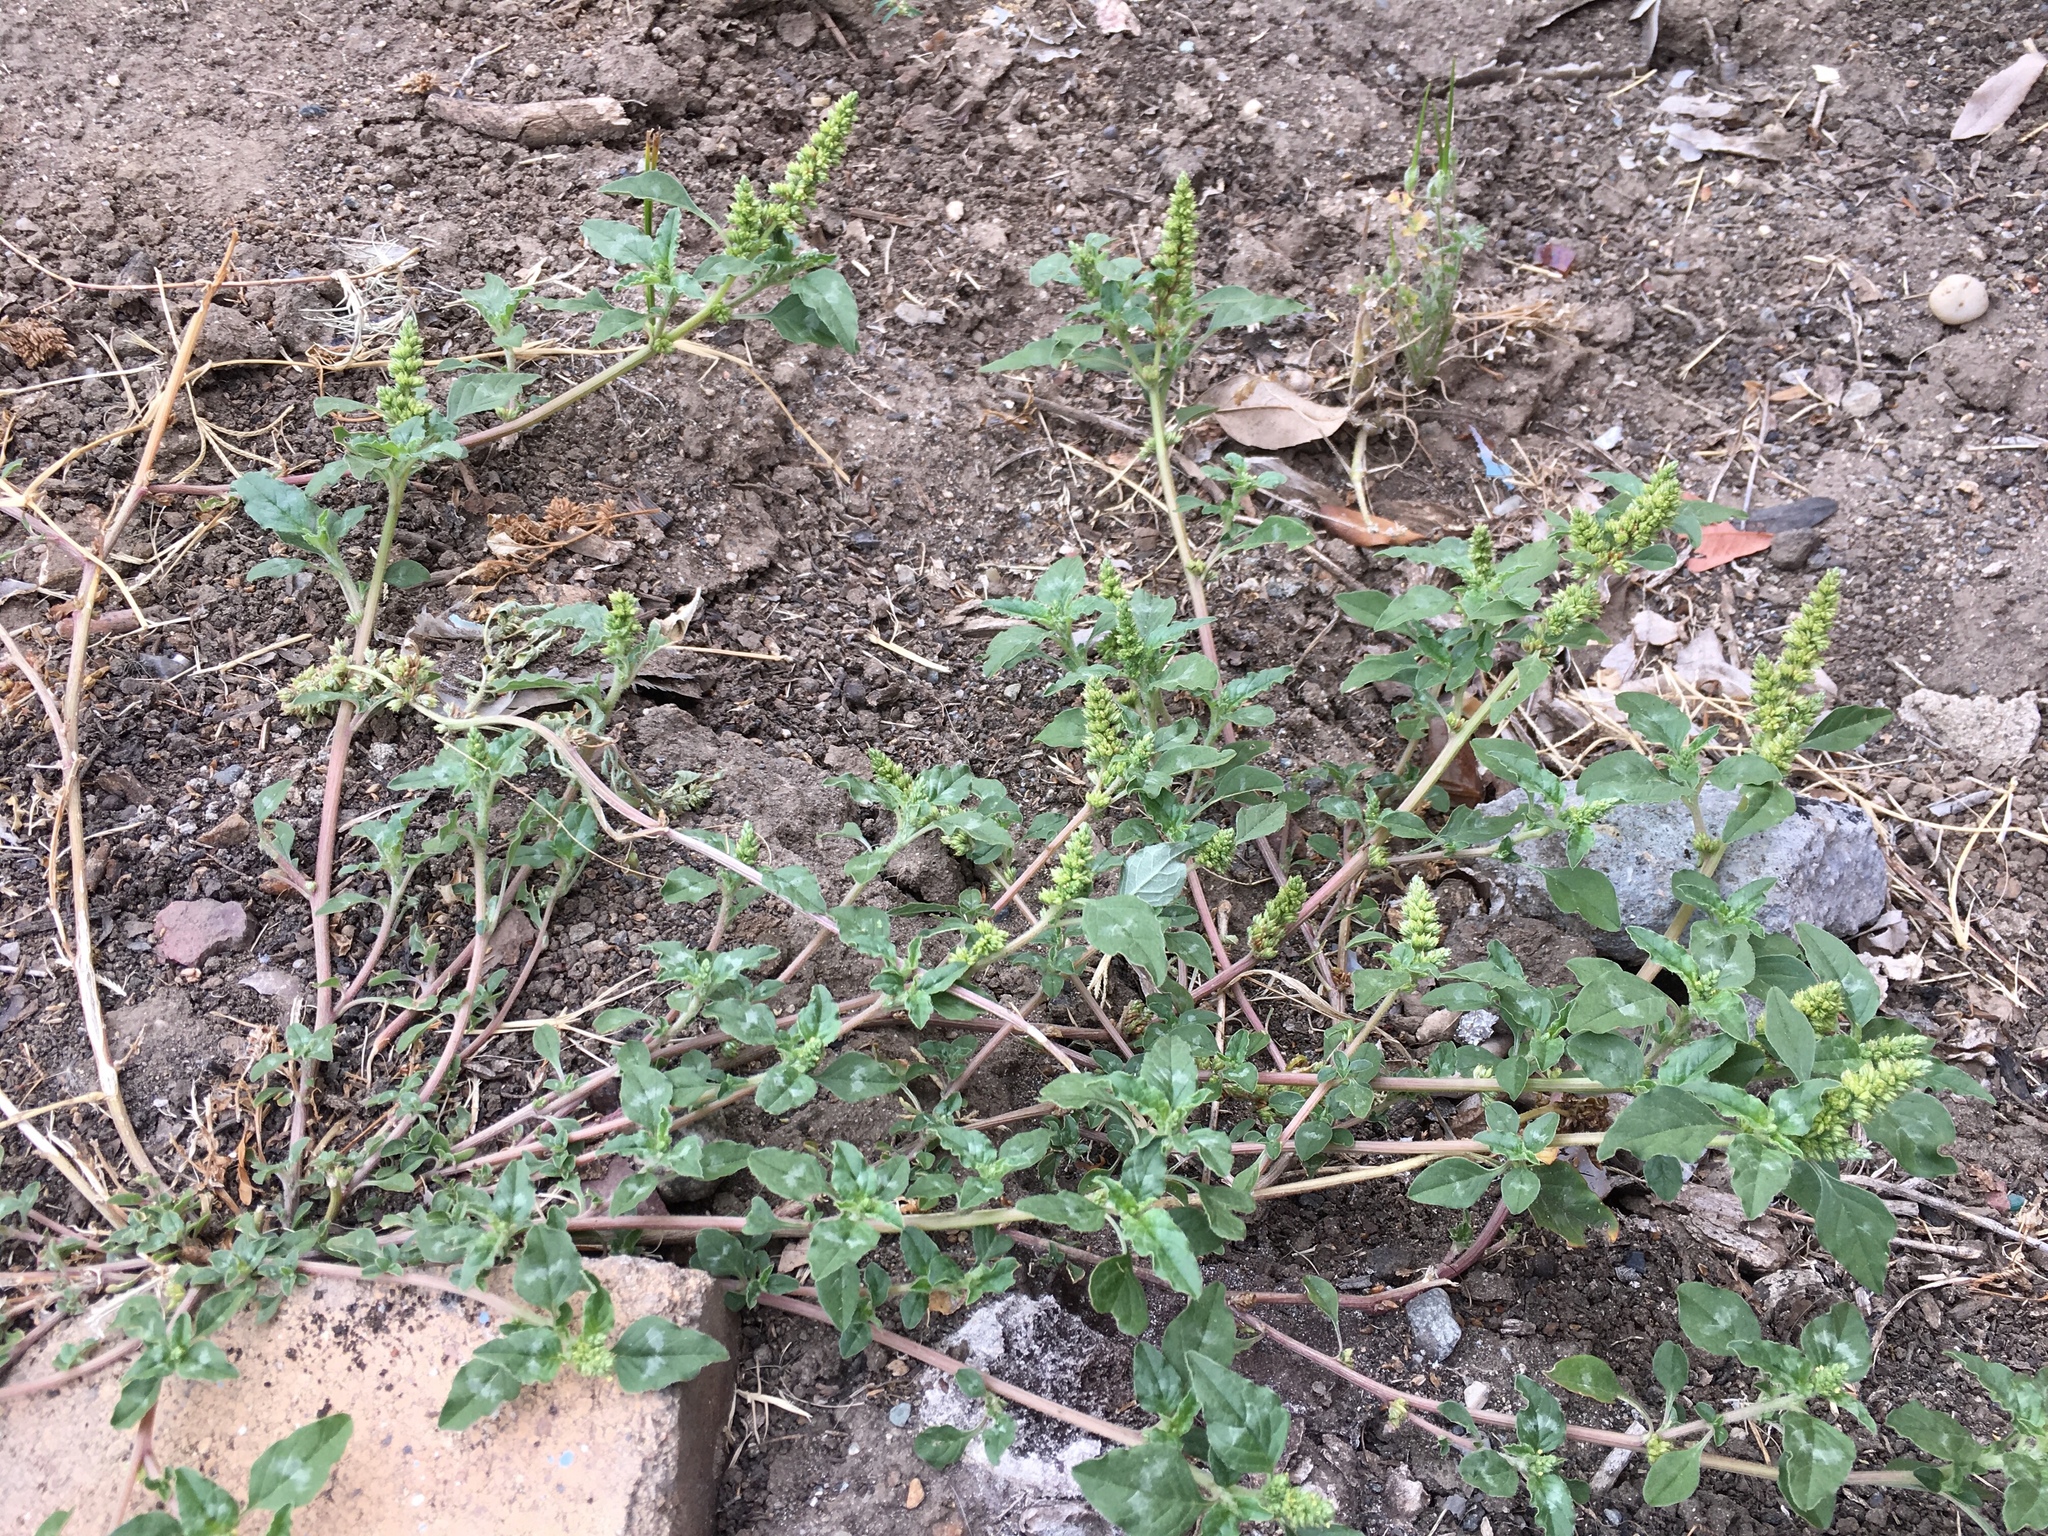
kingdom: Plantae
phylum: Tracheophyta
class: Magnoliopsida
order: Caryophyllales
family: Amaranthaceae
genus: Amaranthus
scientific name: Amaranthus deflexus
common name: Perennial pigweed
